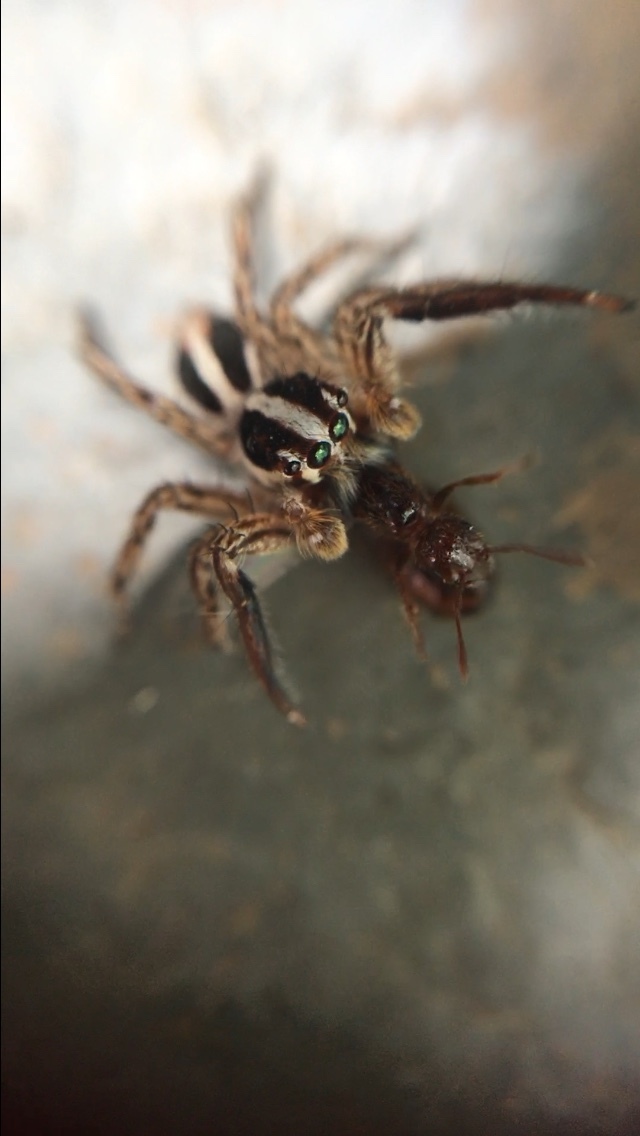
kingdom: Animalia
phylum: Arthropoda
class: Arachnida
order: Araneae
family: Salticidae
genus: Plexippus
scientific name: Plexippus paykulli
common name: Pantropical jumper
